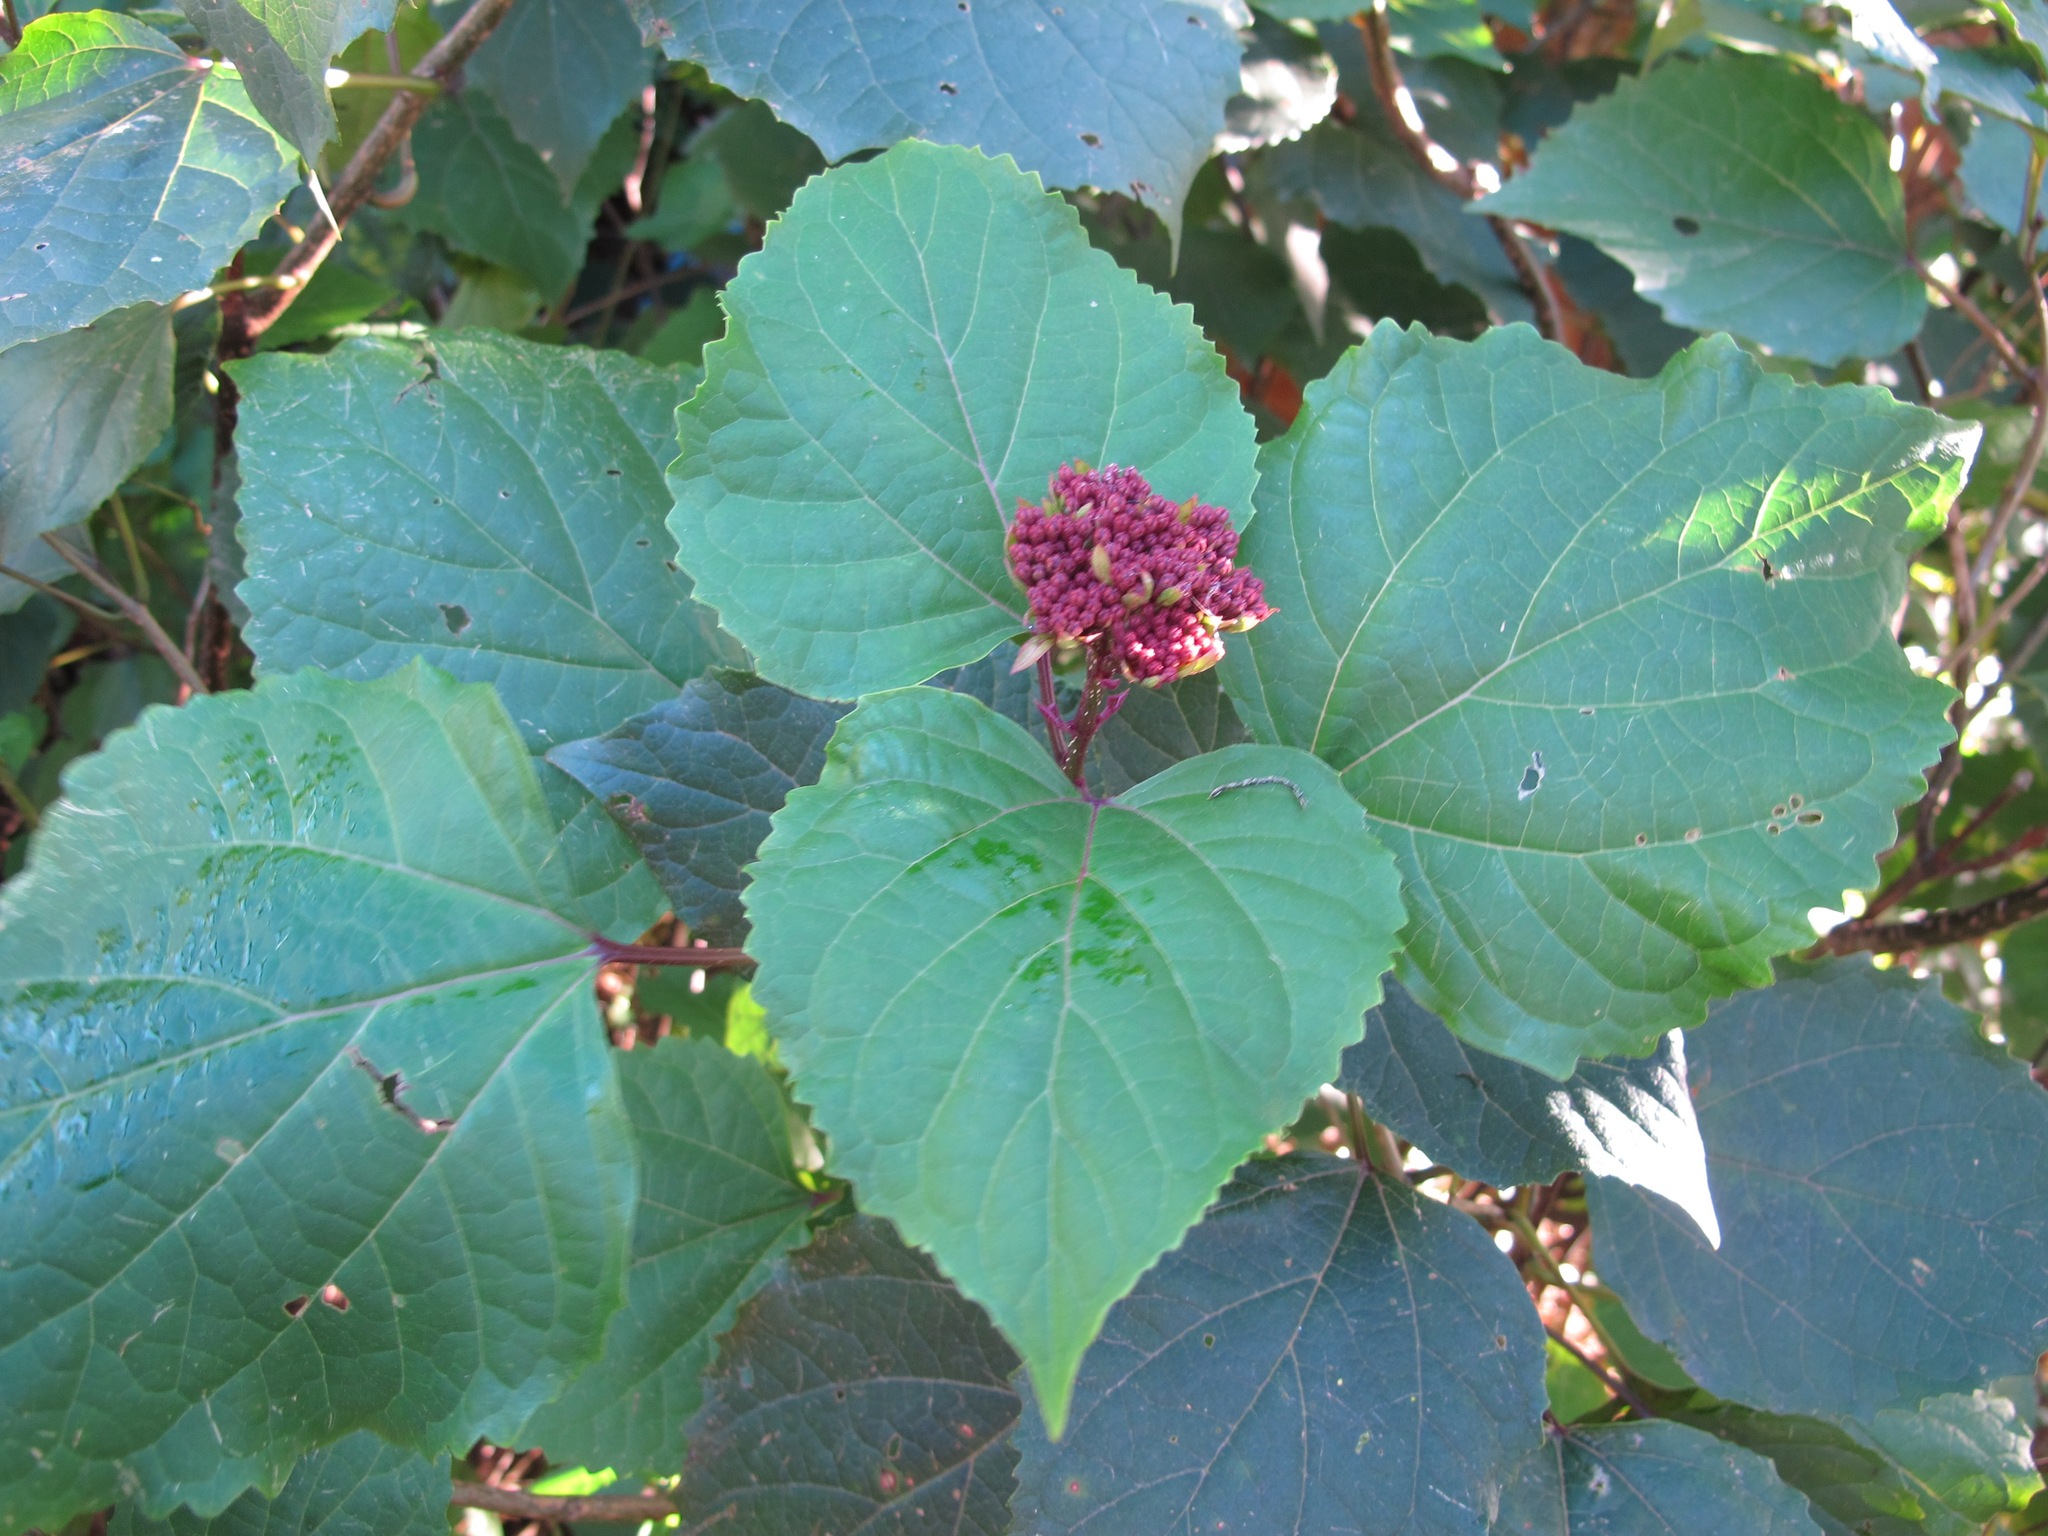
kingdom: Plantae
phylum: Tracheophyta
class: Magnoliopsida
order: Lamiales
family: Lamiaceae
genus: Clerodendrum
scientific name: Clerodendrum bungei
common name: Rose glorybower
